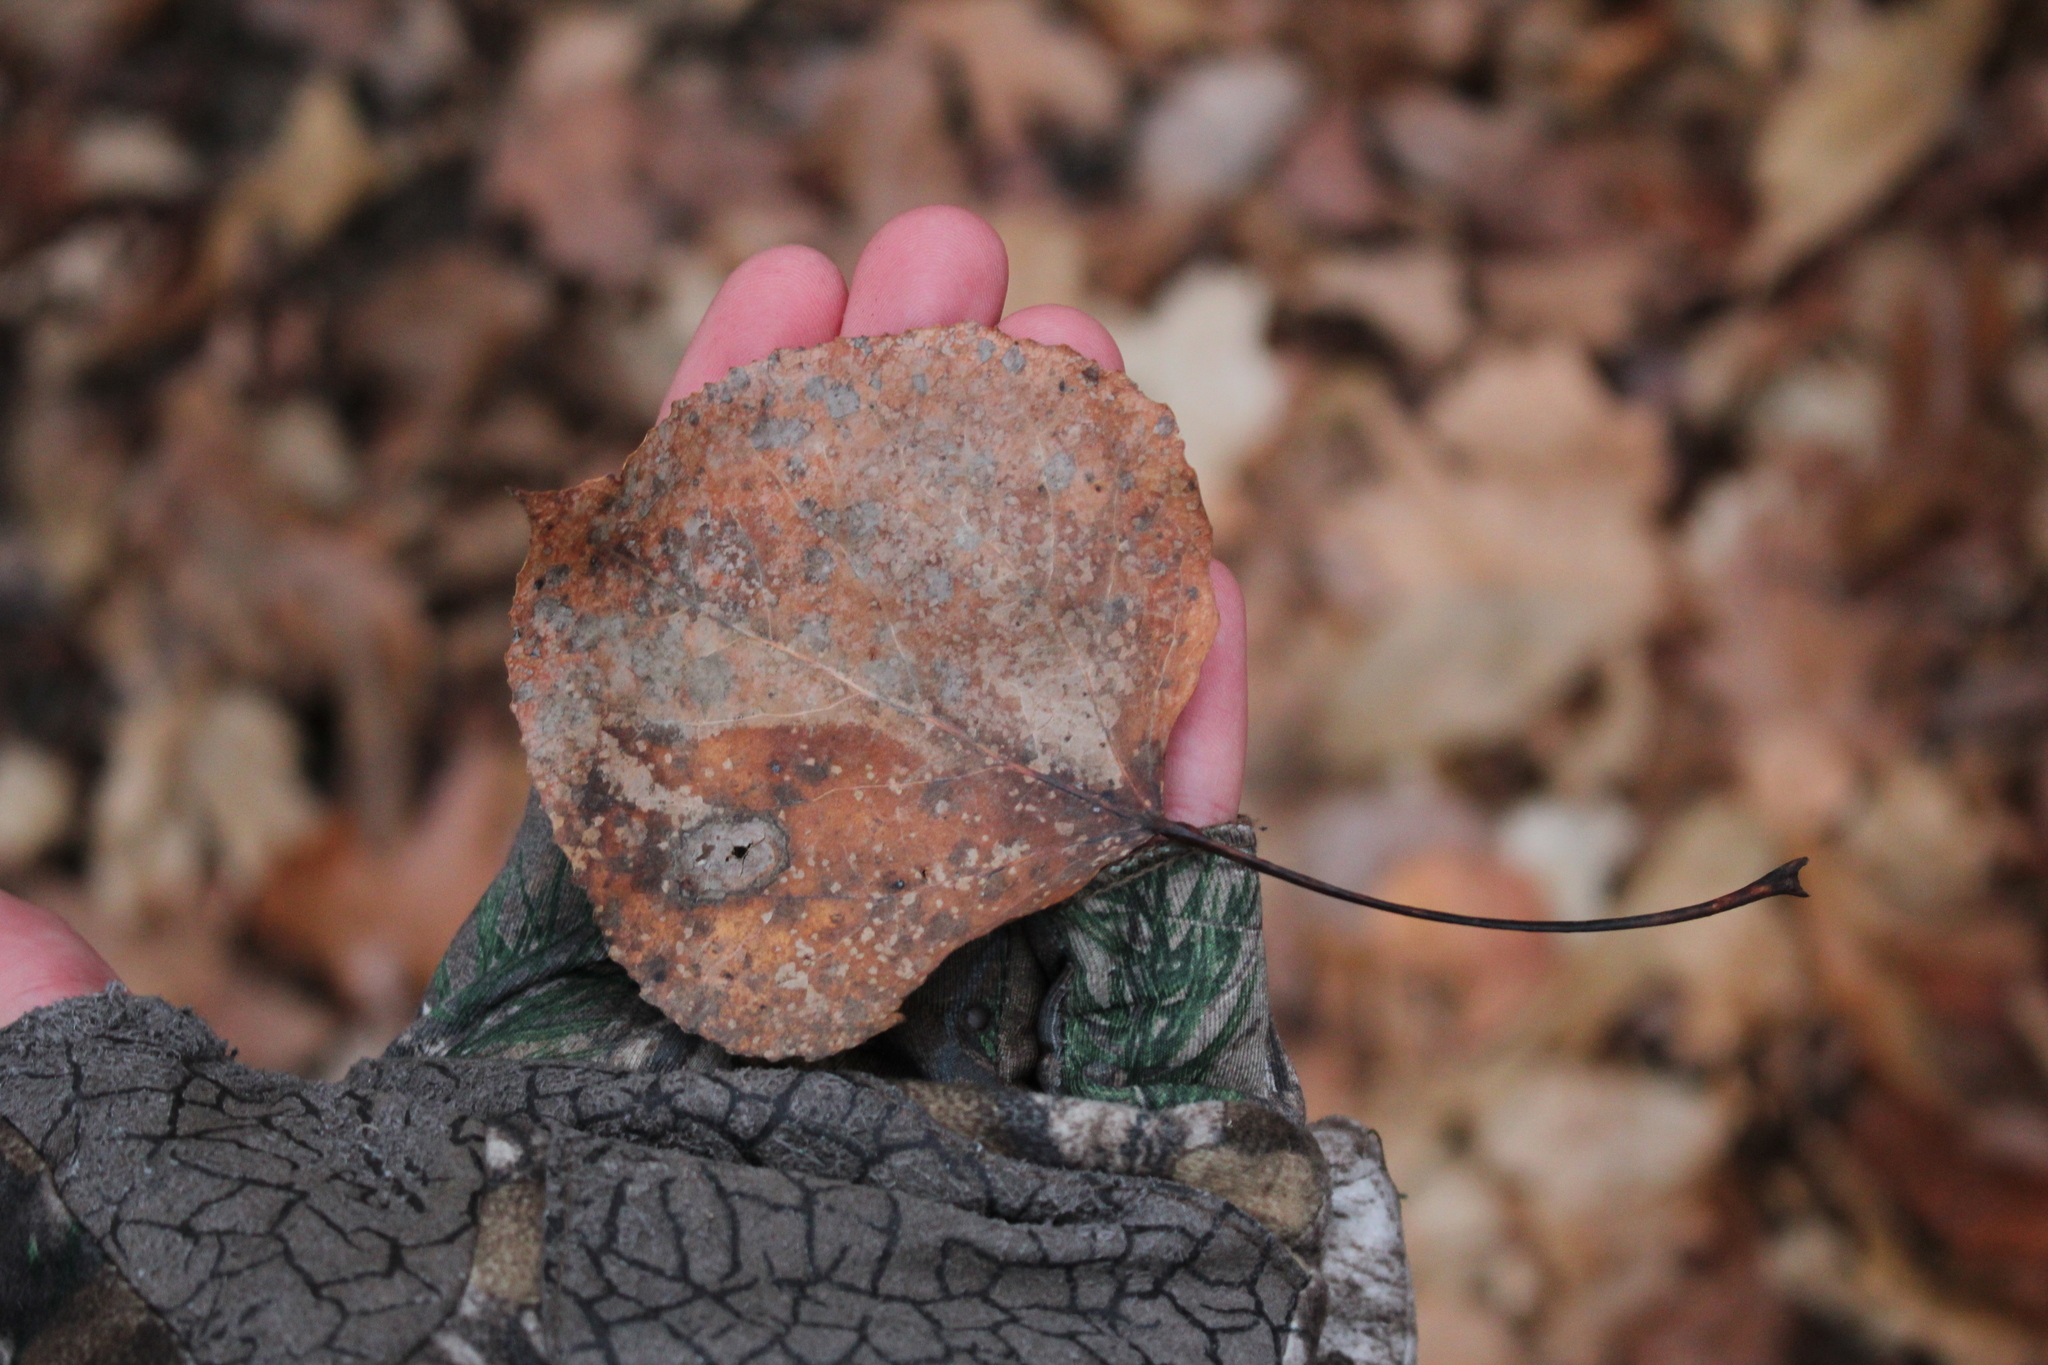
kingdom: Plantae
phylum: Tracheophyta
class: Magnoliopsida
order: Malpighiales
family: Salicaceae
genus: Populus
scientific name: Populus tremuloides
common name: Quaking aspen
